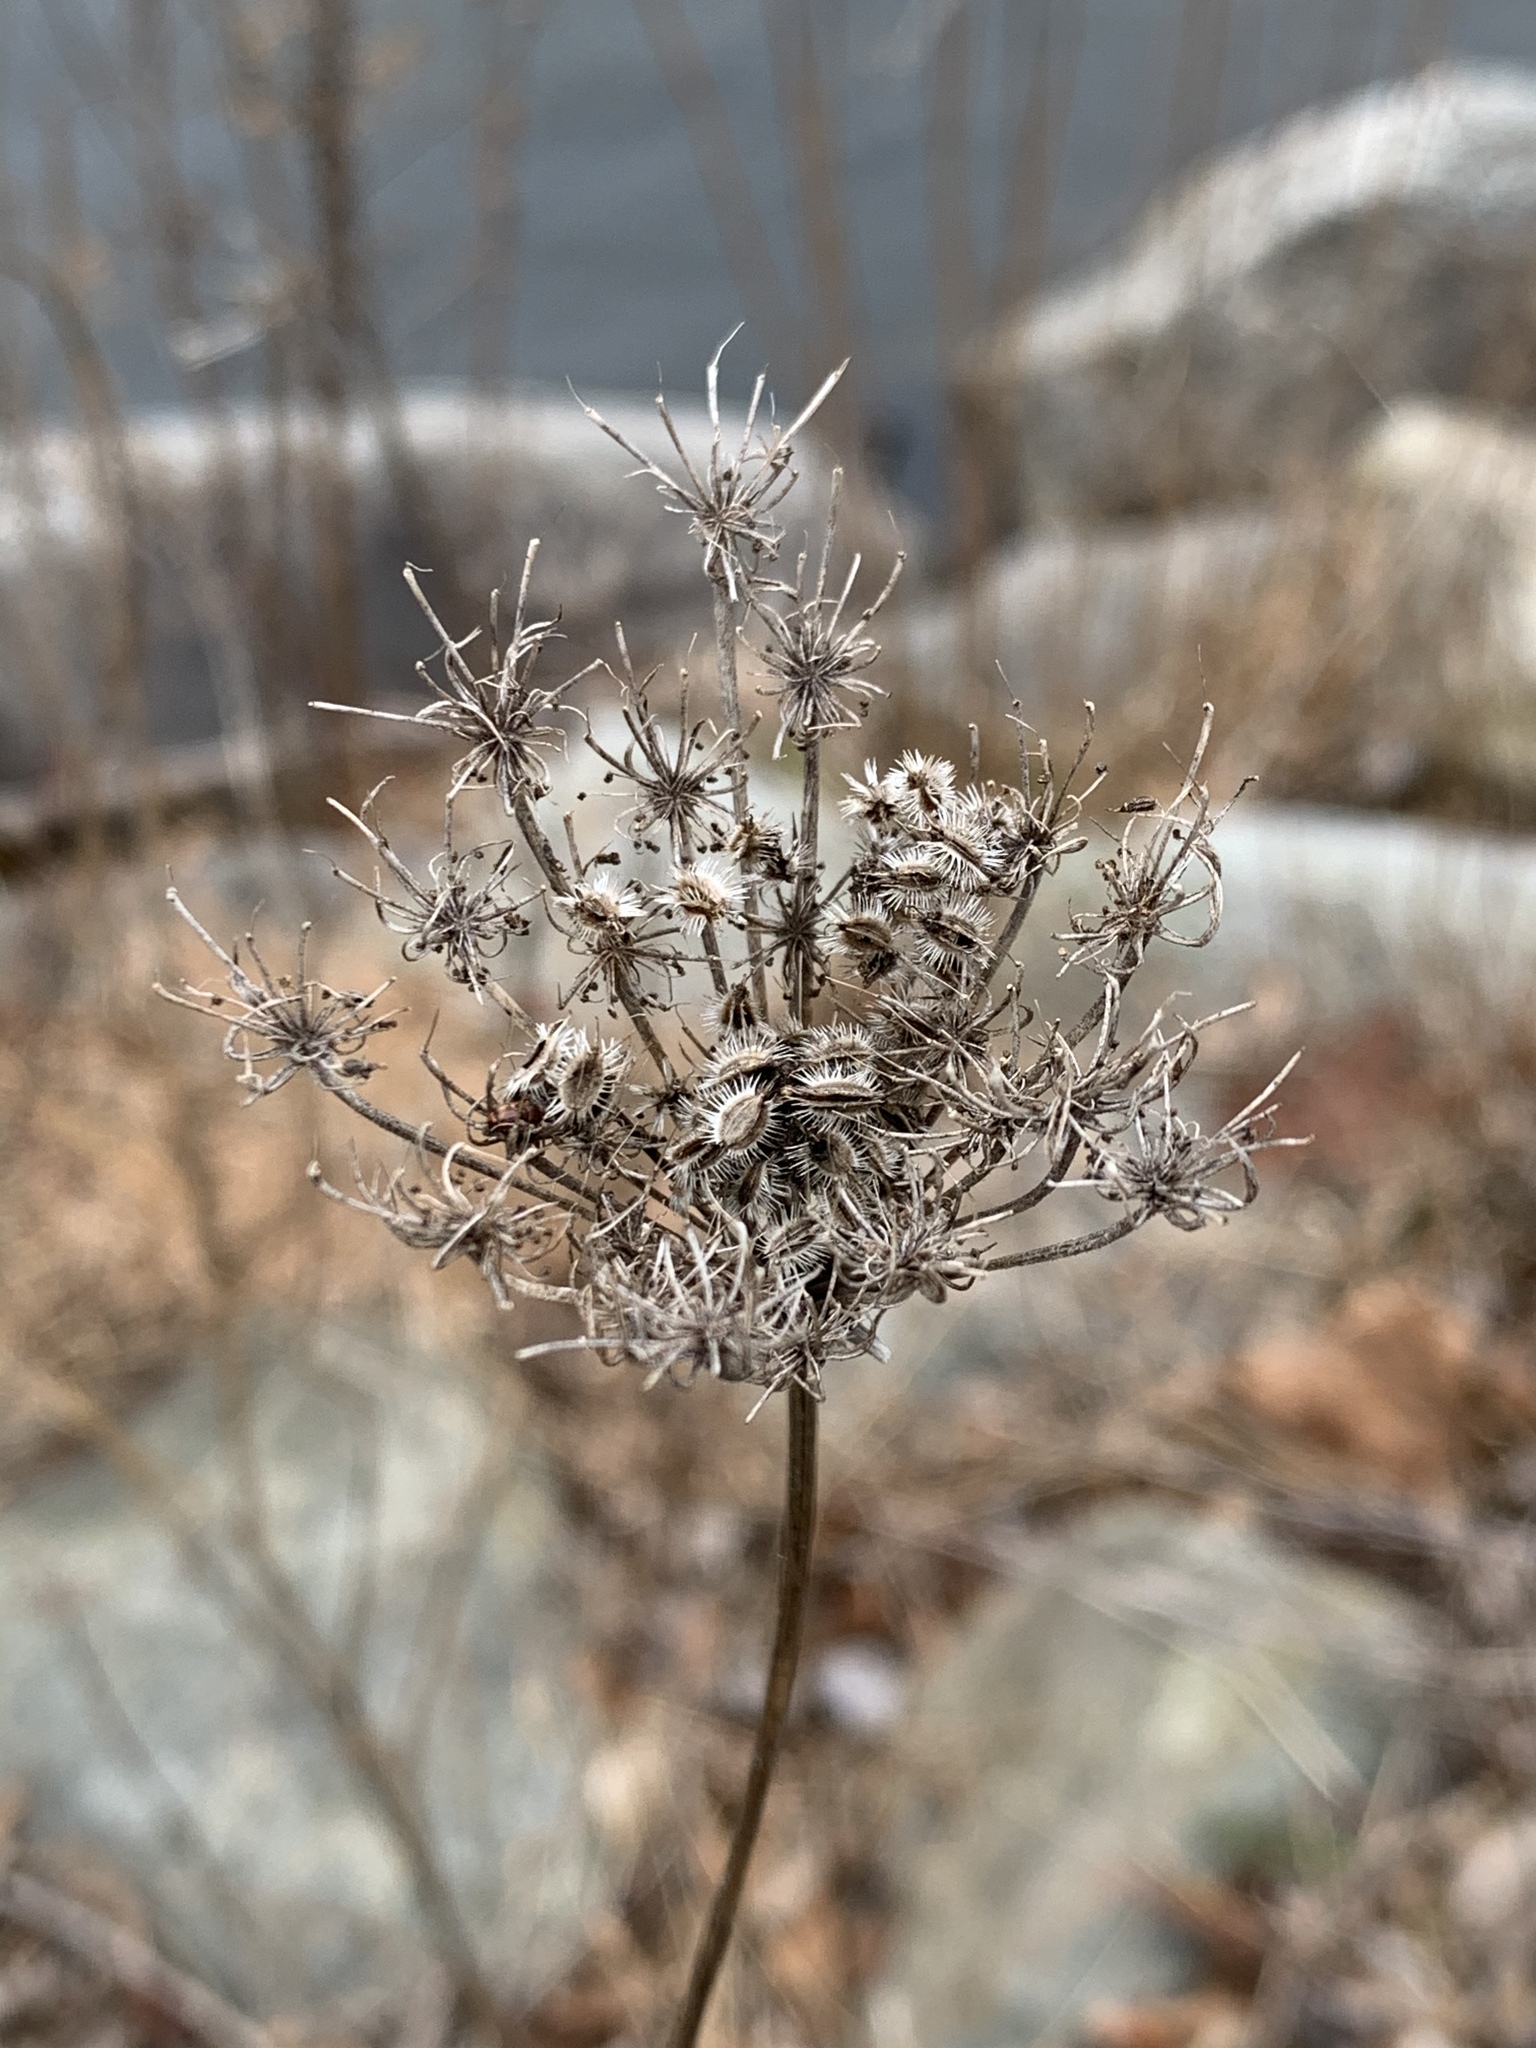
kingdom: Plantae
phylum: Tracheophyta
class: Magnoliopsida
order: Apiales
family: Apiaceae
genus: Daucus
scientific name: Daucus carota
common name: Wild carrot
